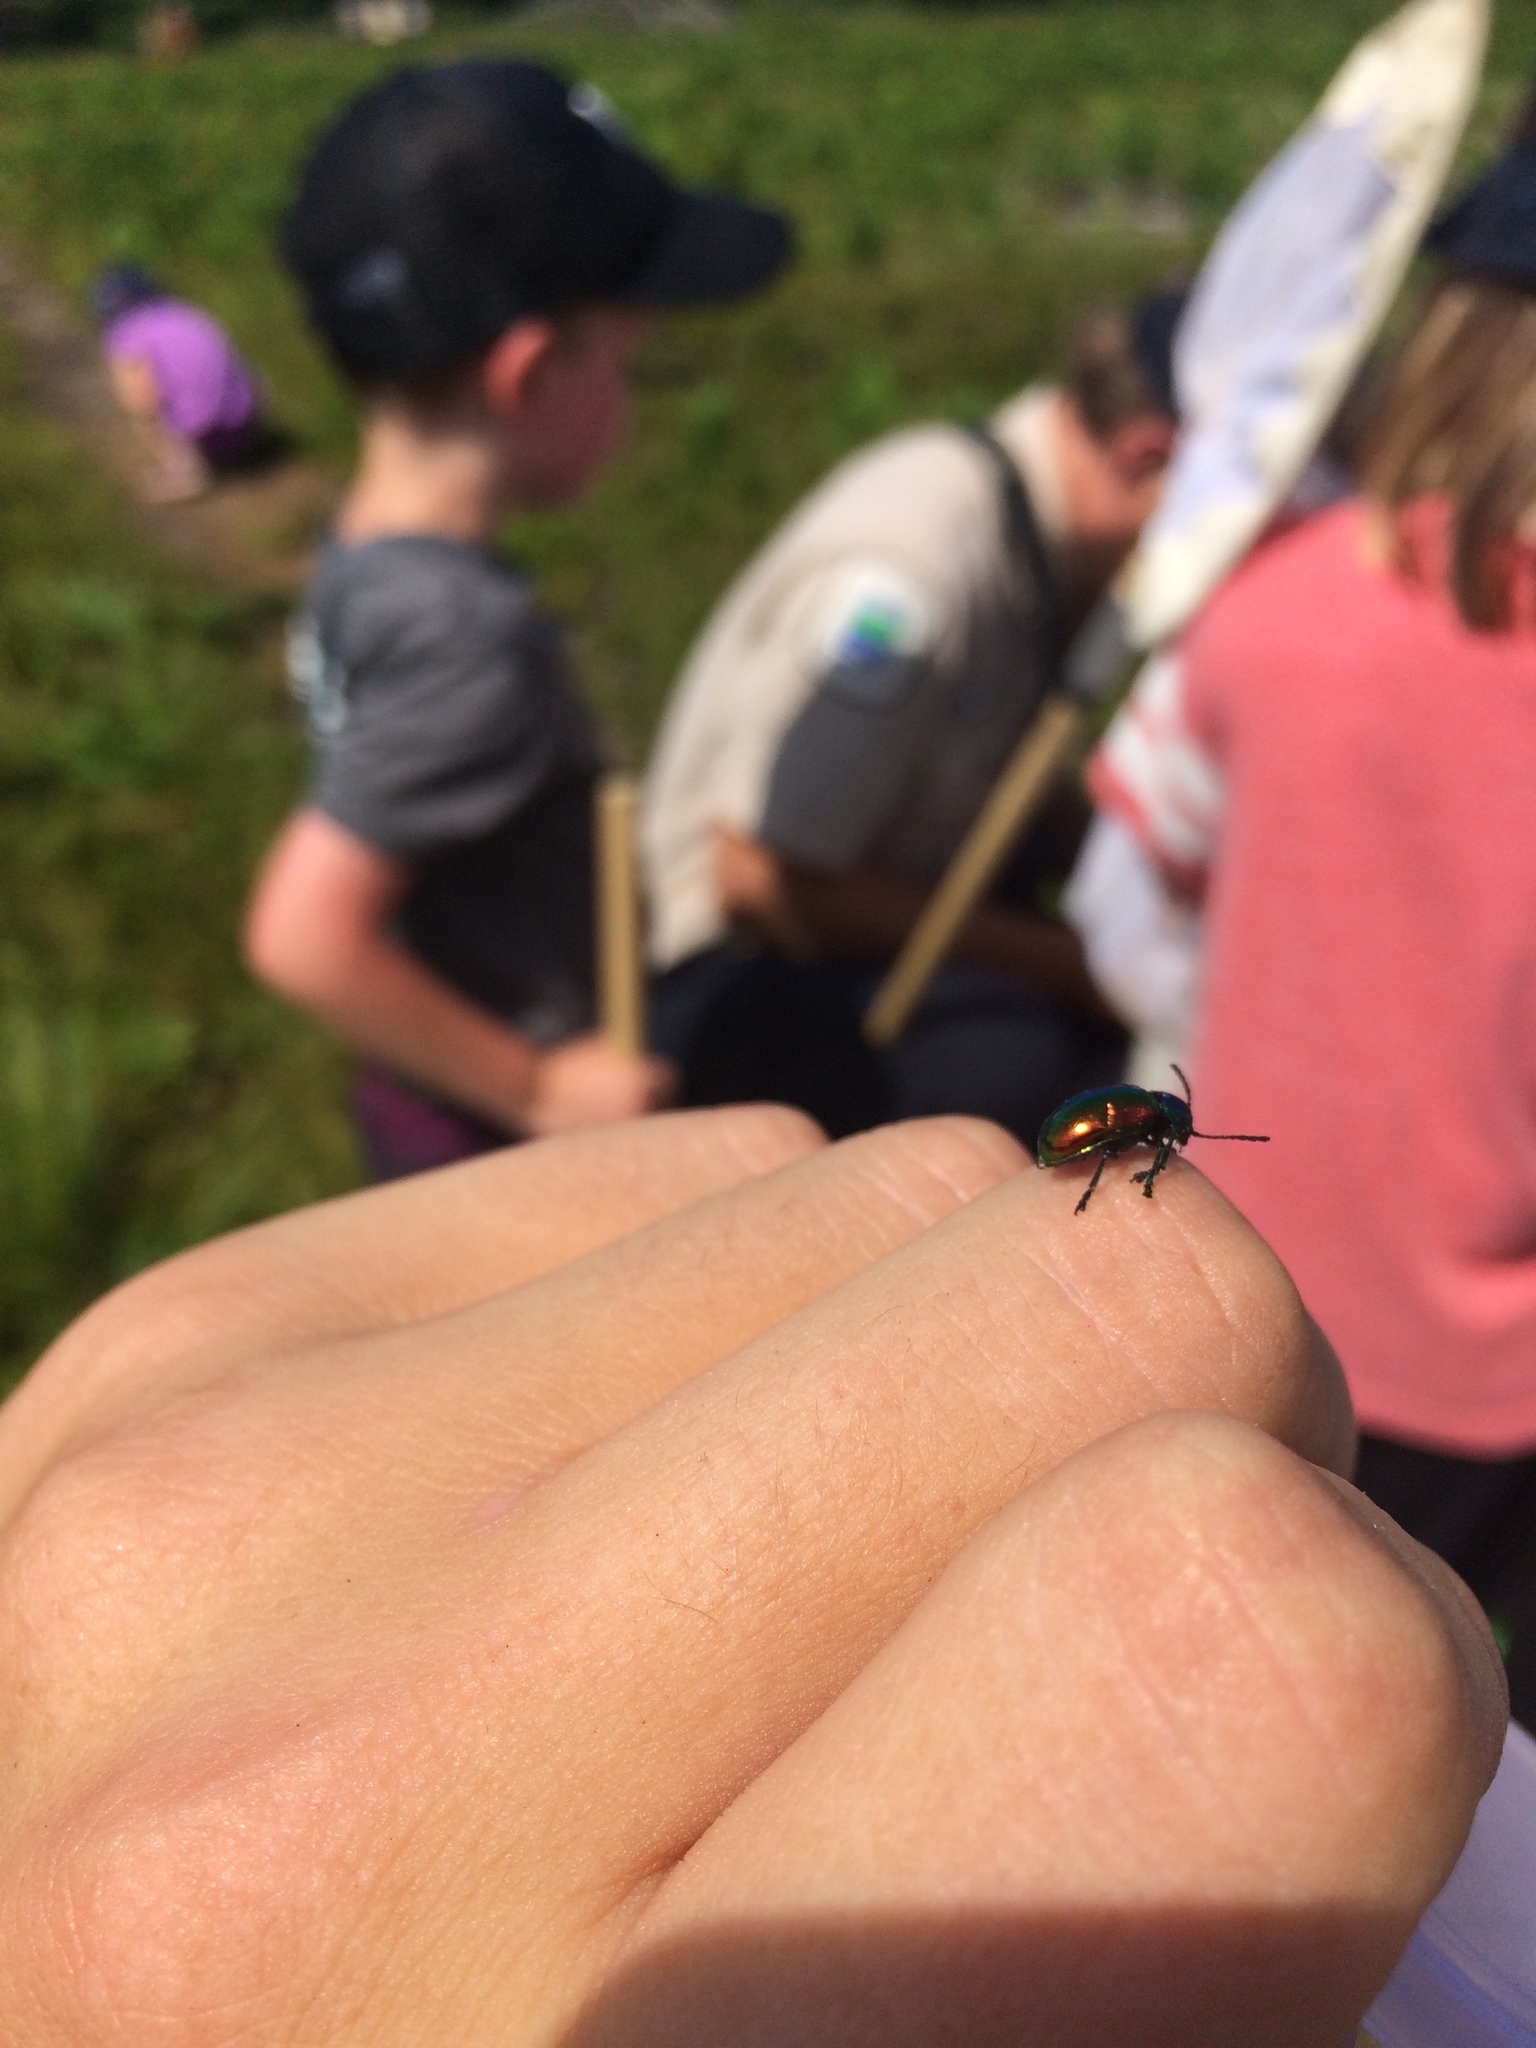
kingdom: Animalia
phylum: Arthropoda
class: Insecta
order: Coleoptera
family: Chrysomelidae
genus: Chrysochus
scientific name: Chrysochus auratus
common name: Dogbane leaf beetle
